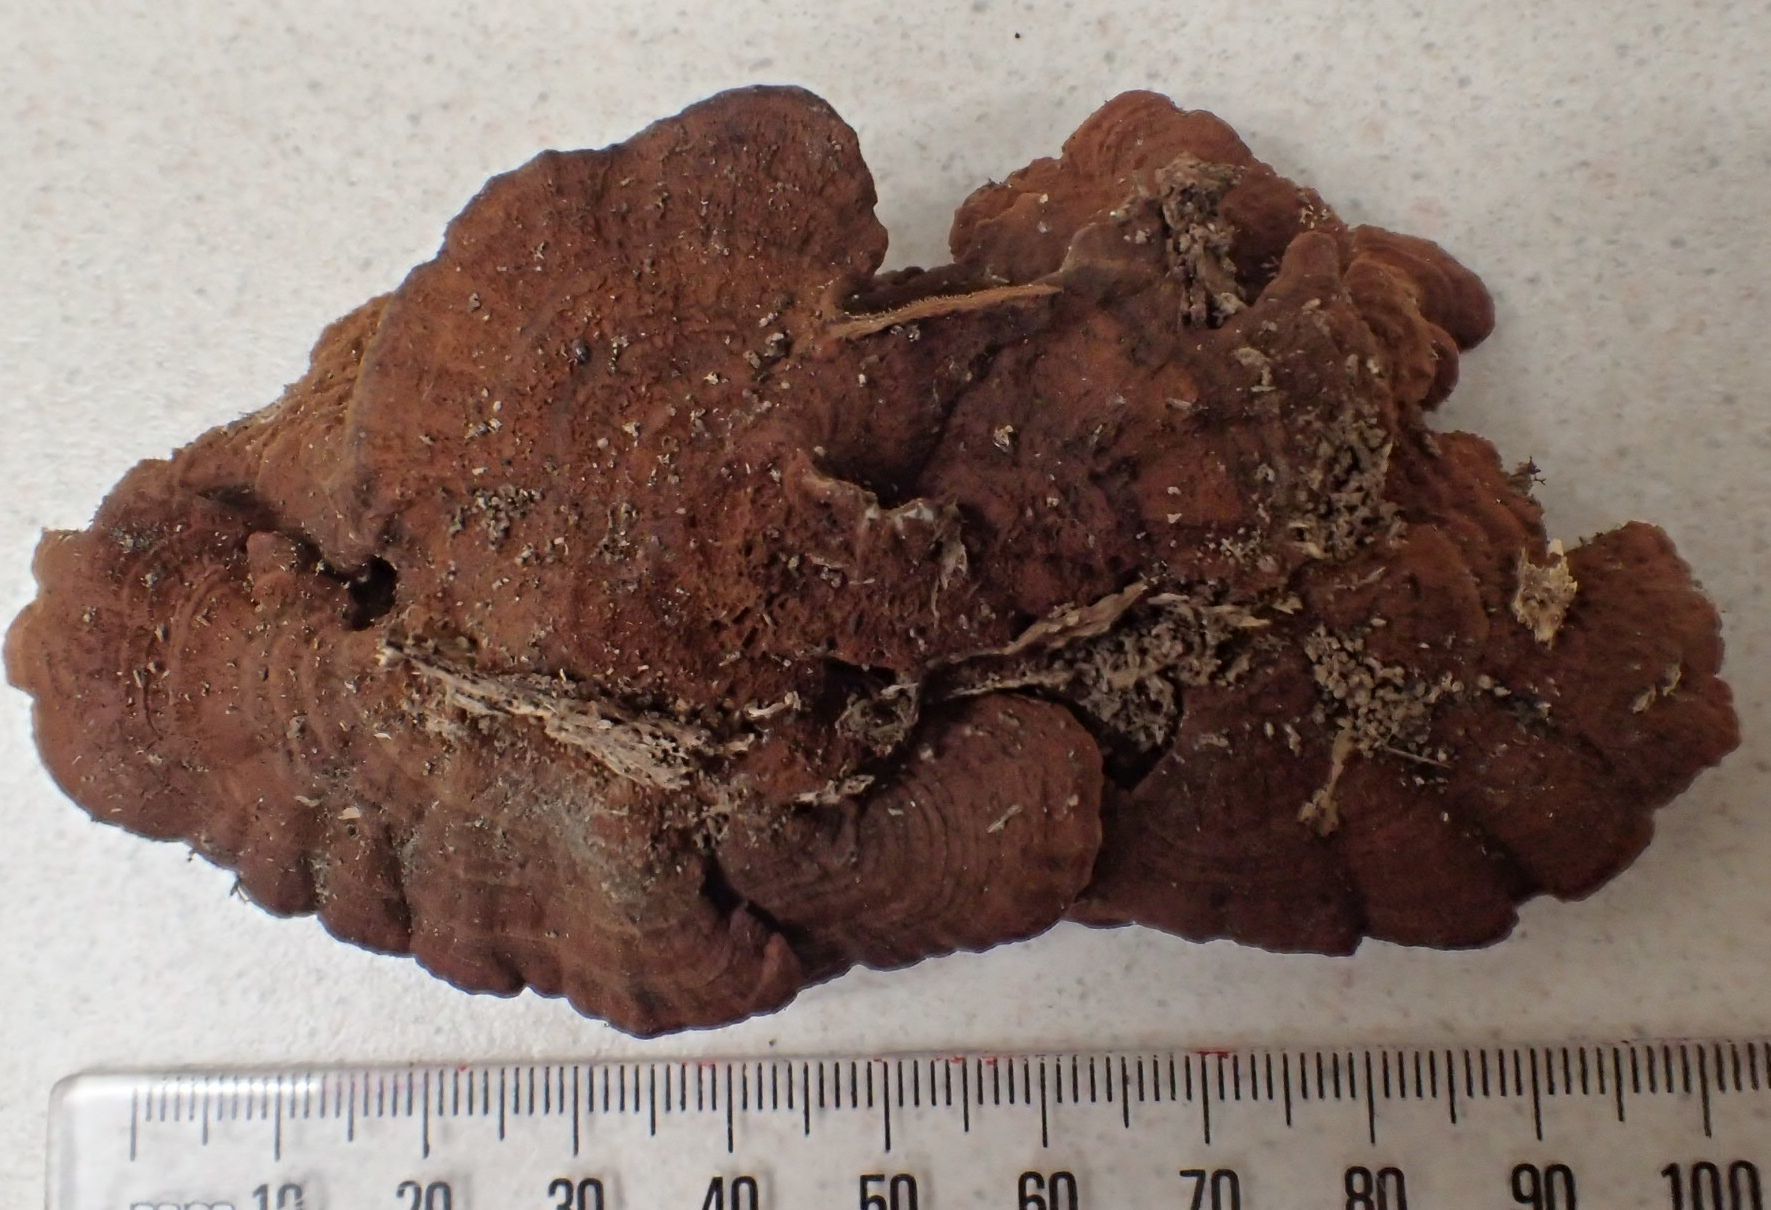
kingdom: Fungi
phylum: Basidiomycota
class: Agaricomycetes
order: Hymenochaetales
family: Hymenochaetaceae
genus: Hymenochaete
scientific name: Hymenochaete microcycla
